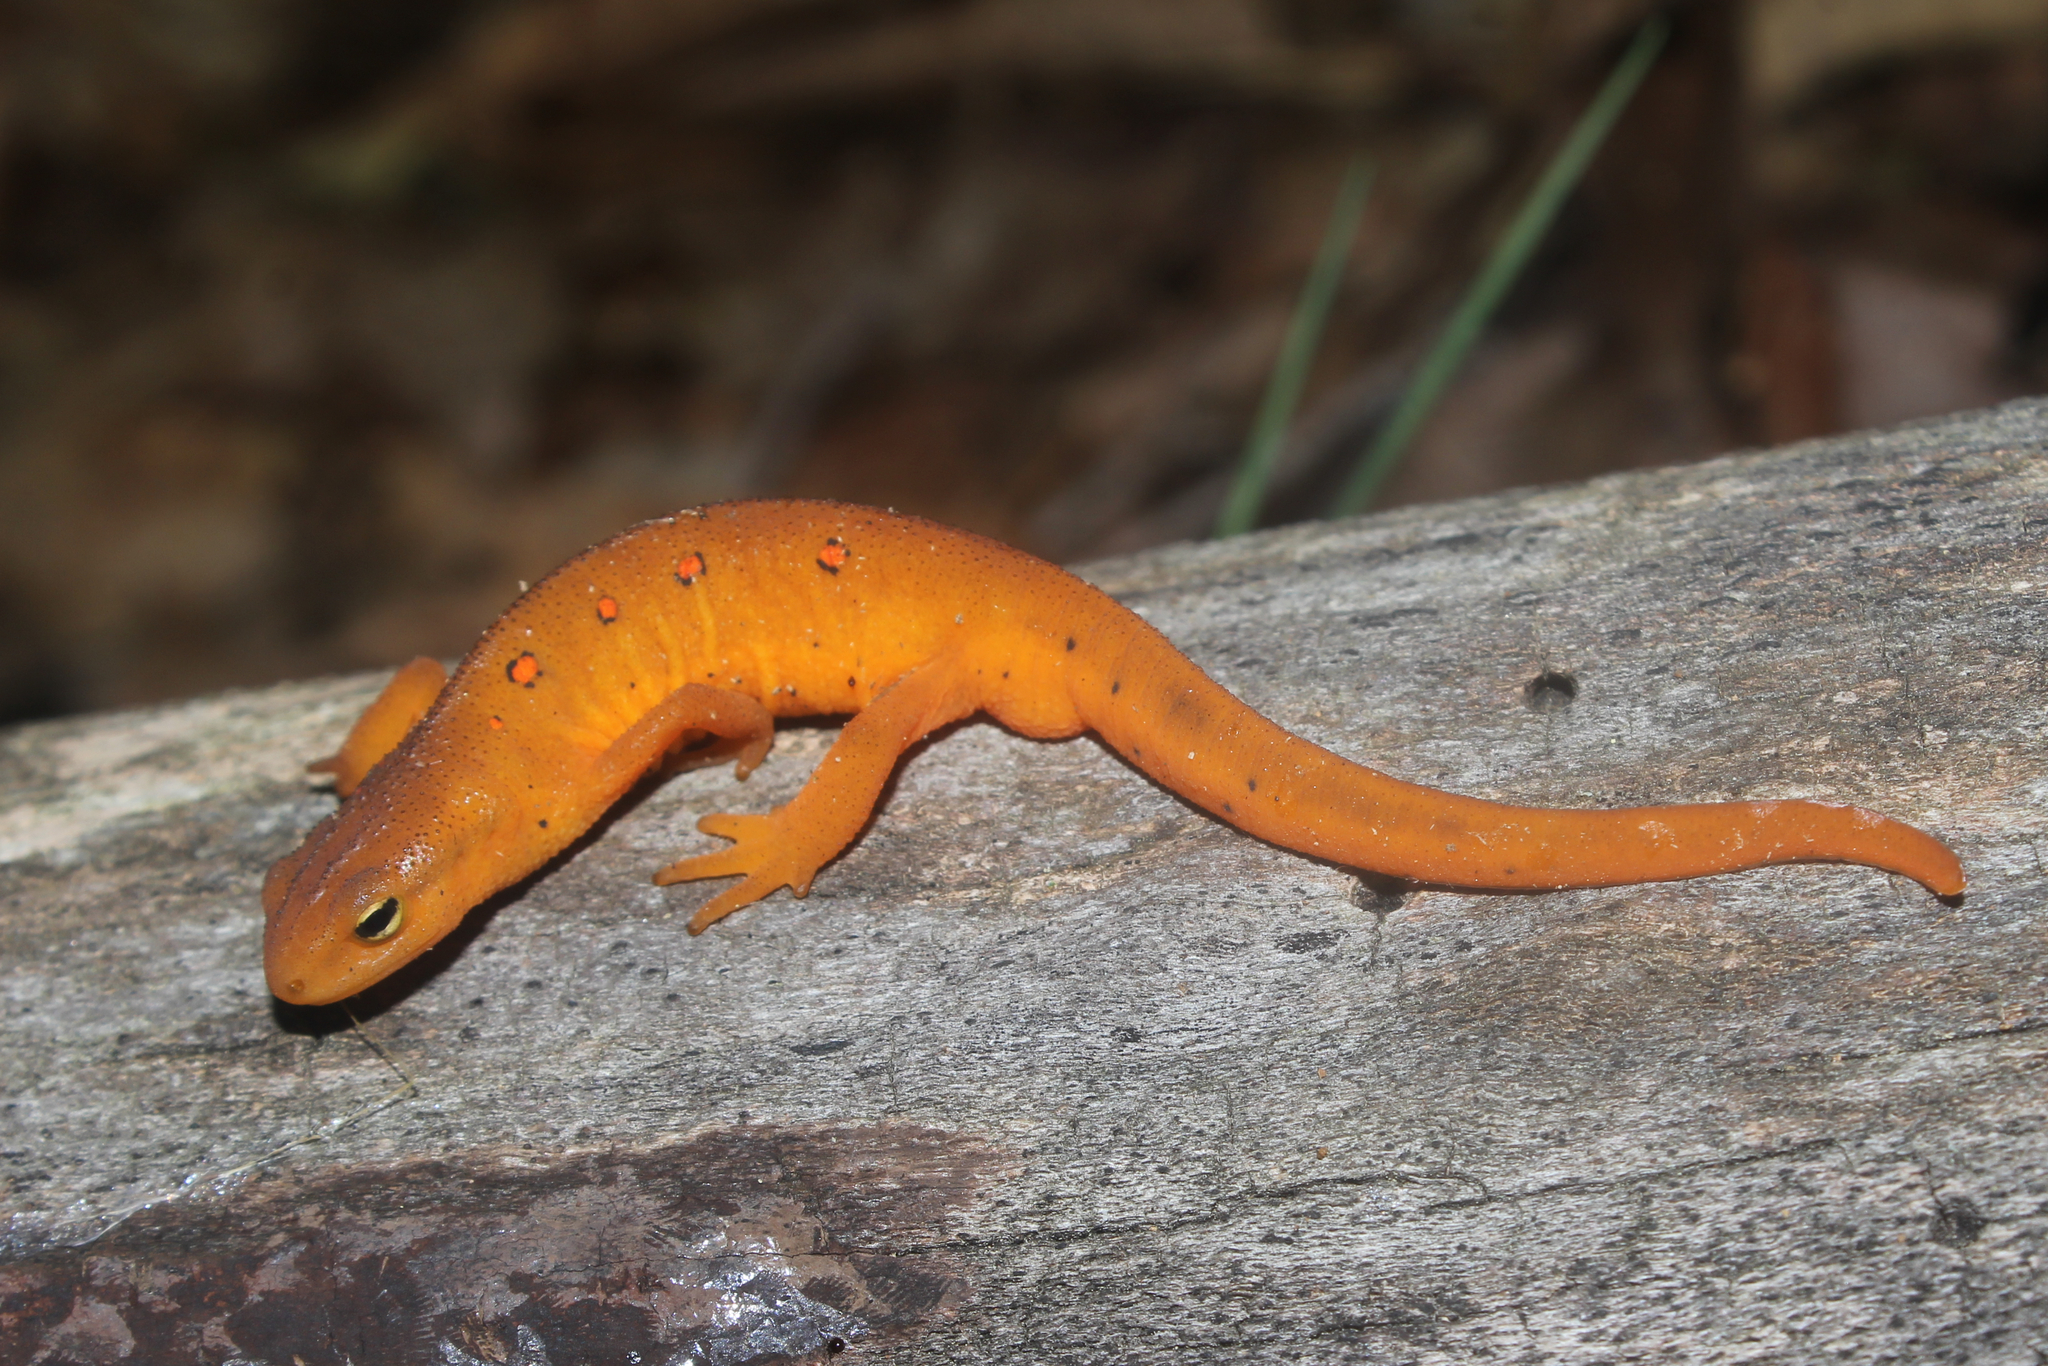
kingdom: Animalia
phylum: Chordata
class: Amphibia
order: Caudata
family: Salamandridae
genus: Notophthalmus
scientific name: Notophthalmus viridescens
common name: Eastern newt
